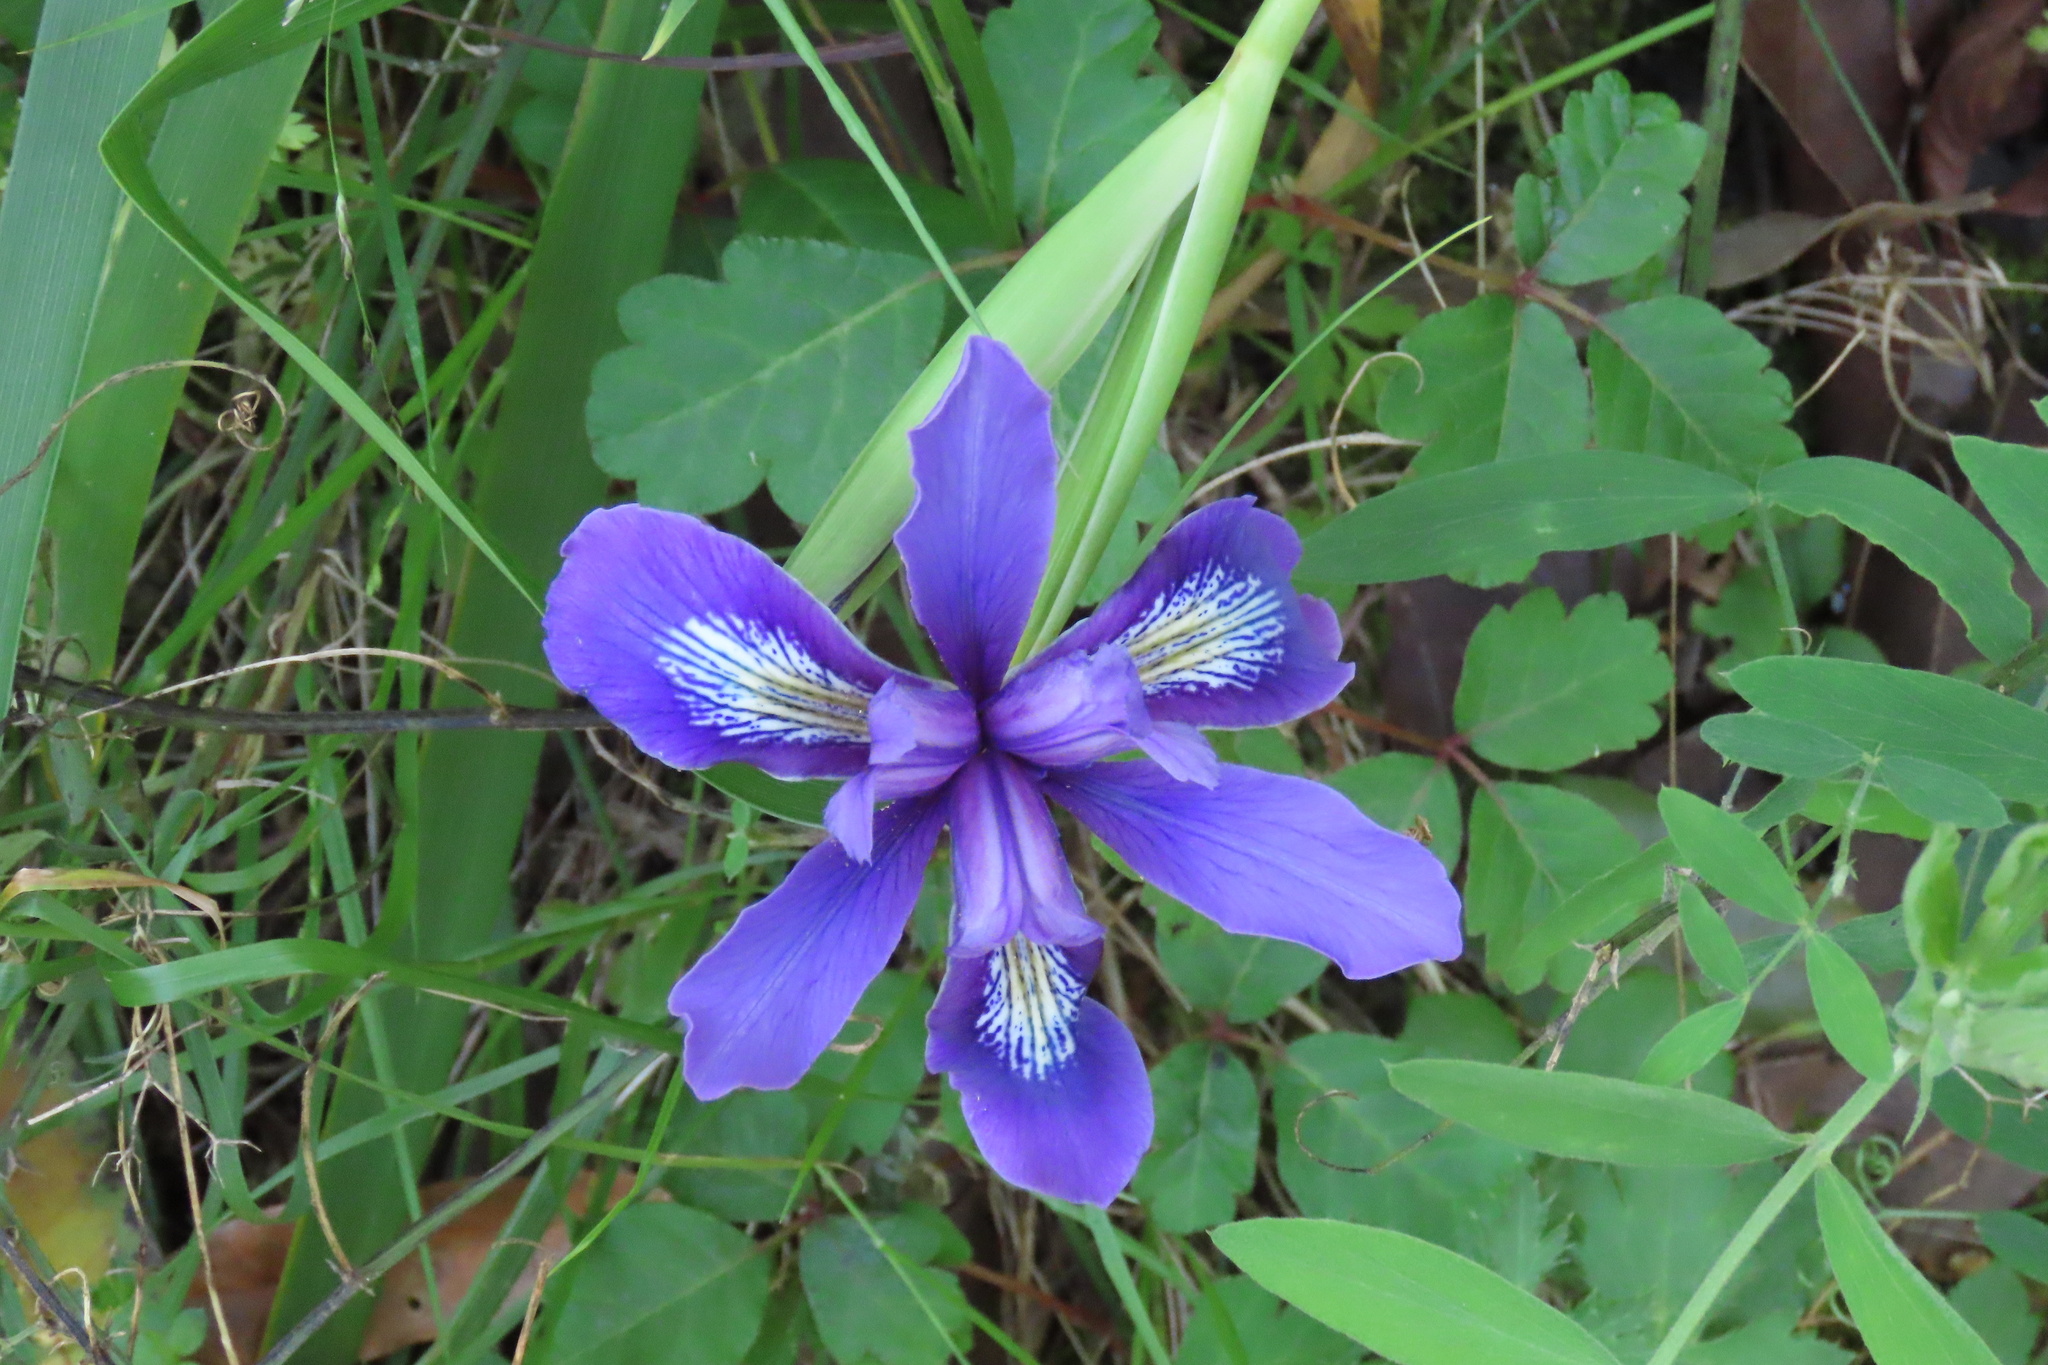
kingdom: Plantae
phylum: Tracheophyta
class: Liliopsida
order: Asparagales
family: Iridaceae
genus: Iris
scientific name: Iris douglasiana
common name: Marin iris
